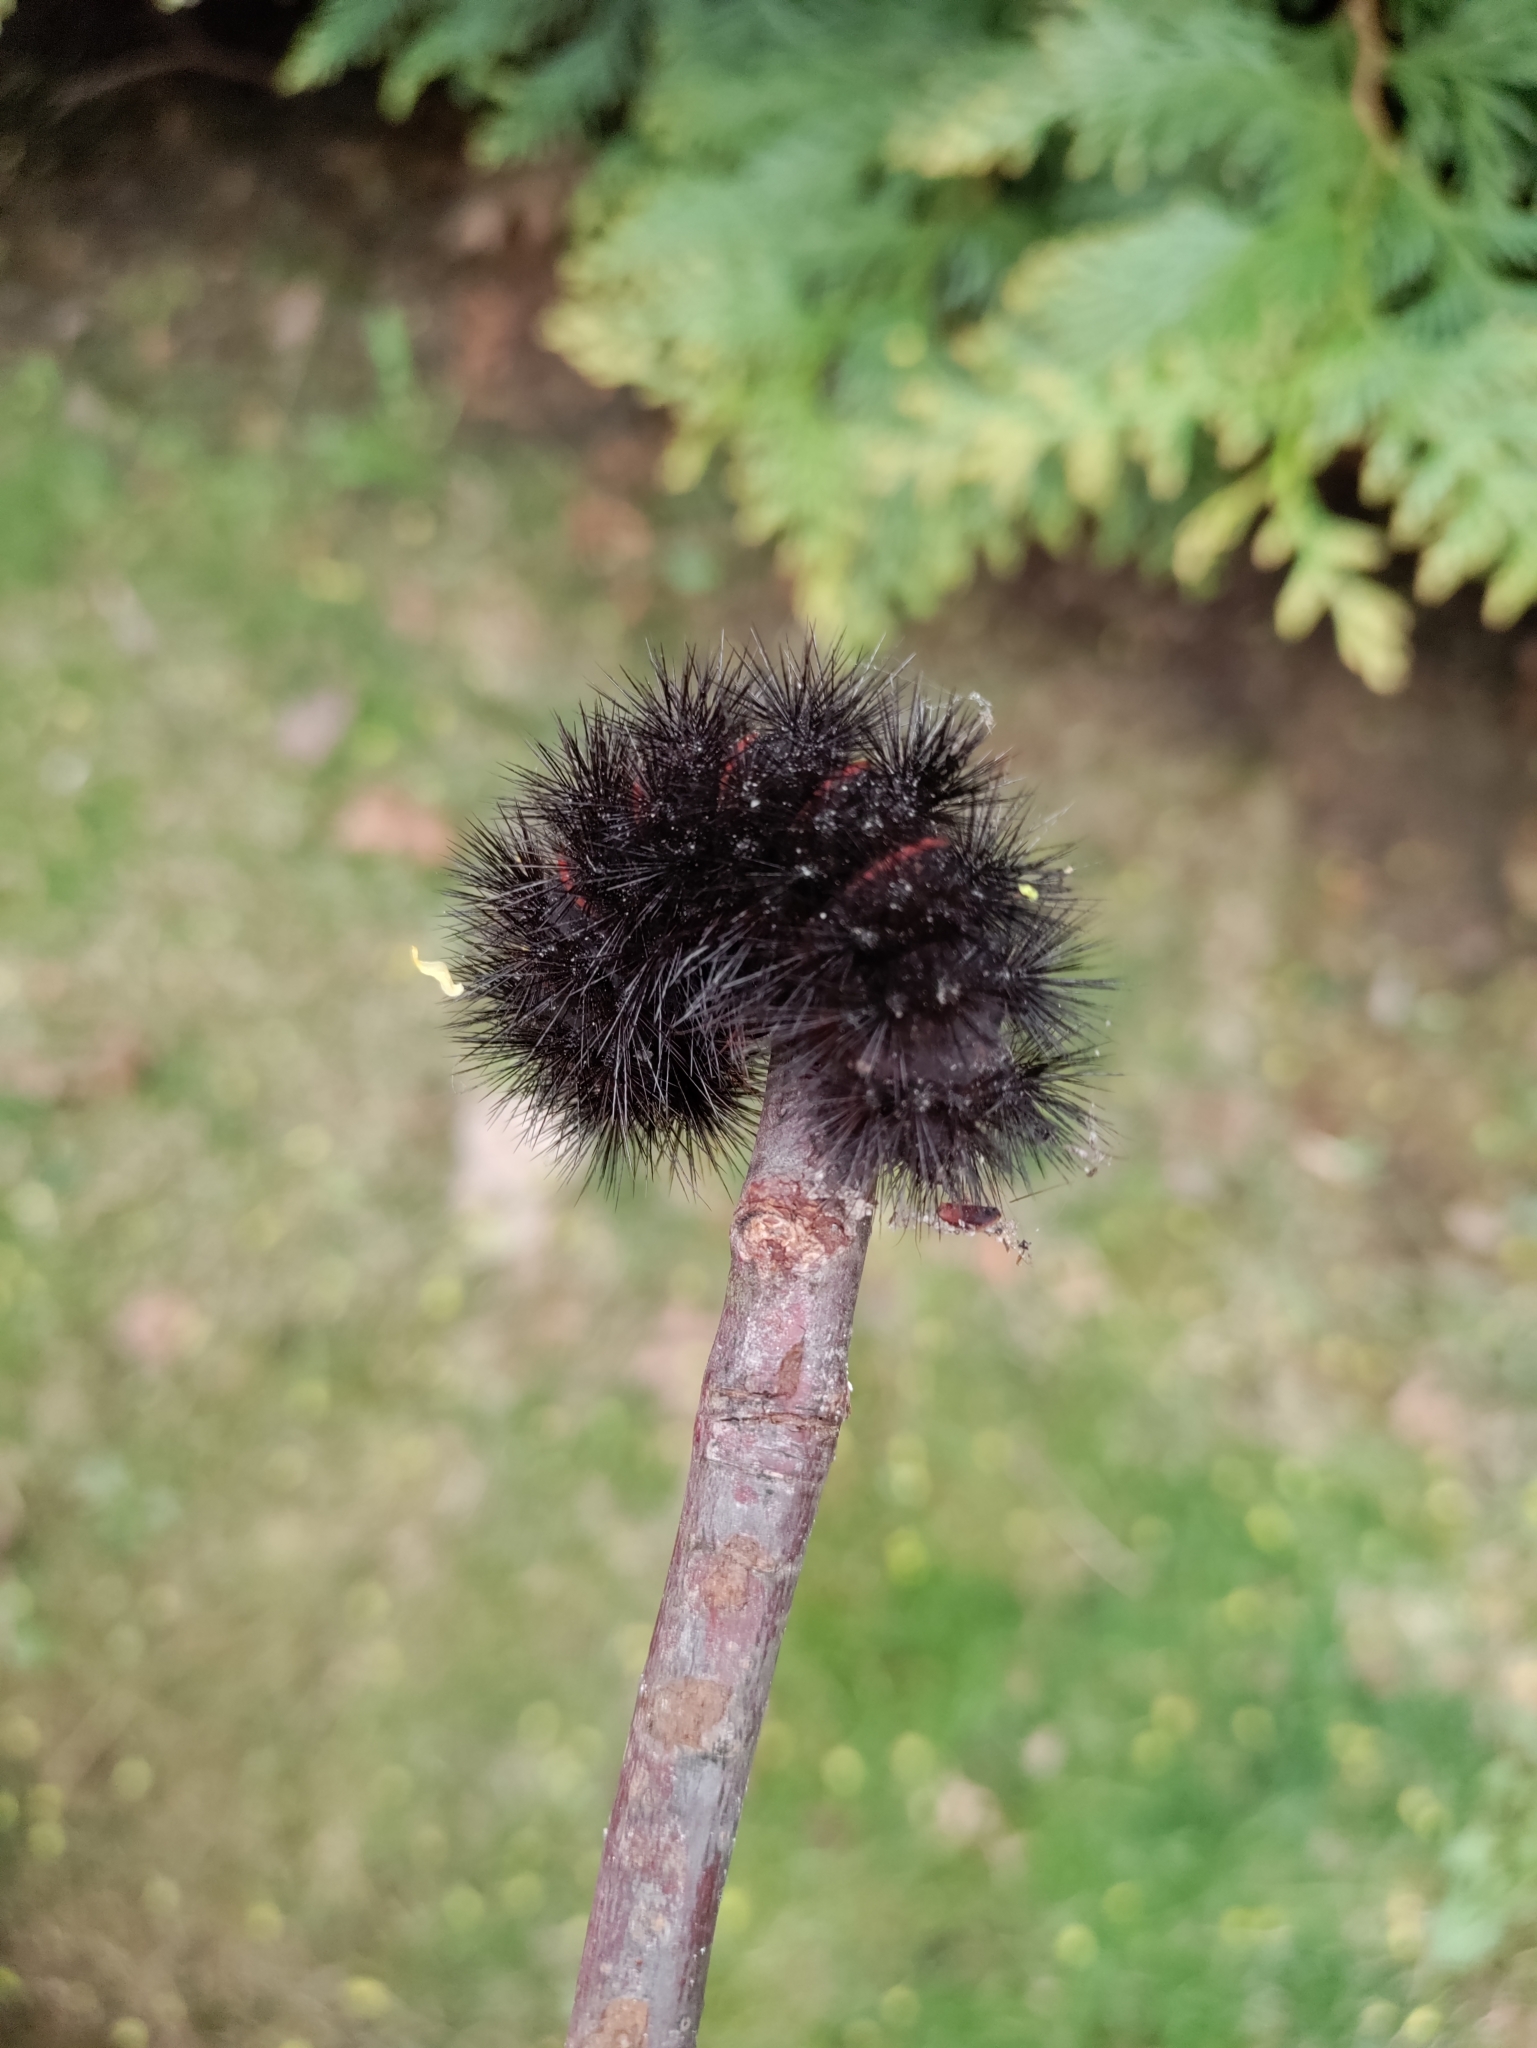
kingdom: Animalia
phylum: Arthropoda
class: Insecta
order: Lepidoptera
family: Erebidae
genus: Hypercompe
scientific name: Hypercompe scribonia
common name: Giant leopard moth
